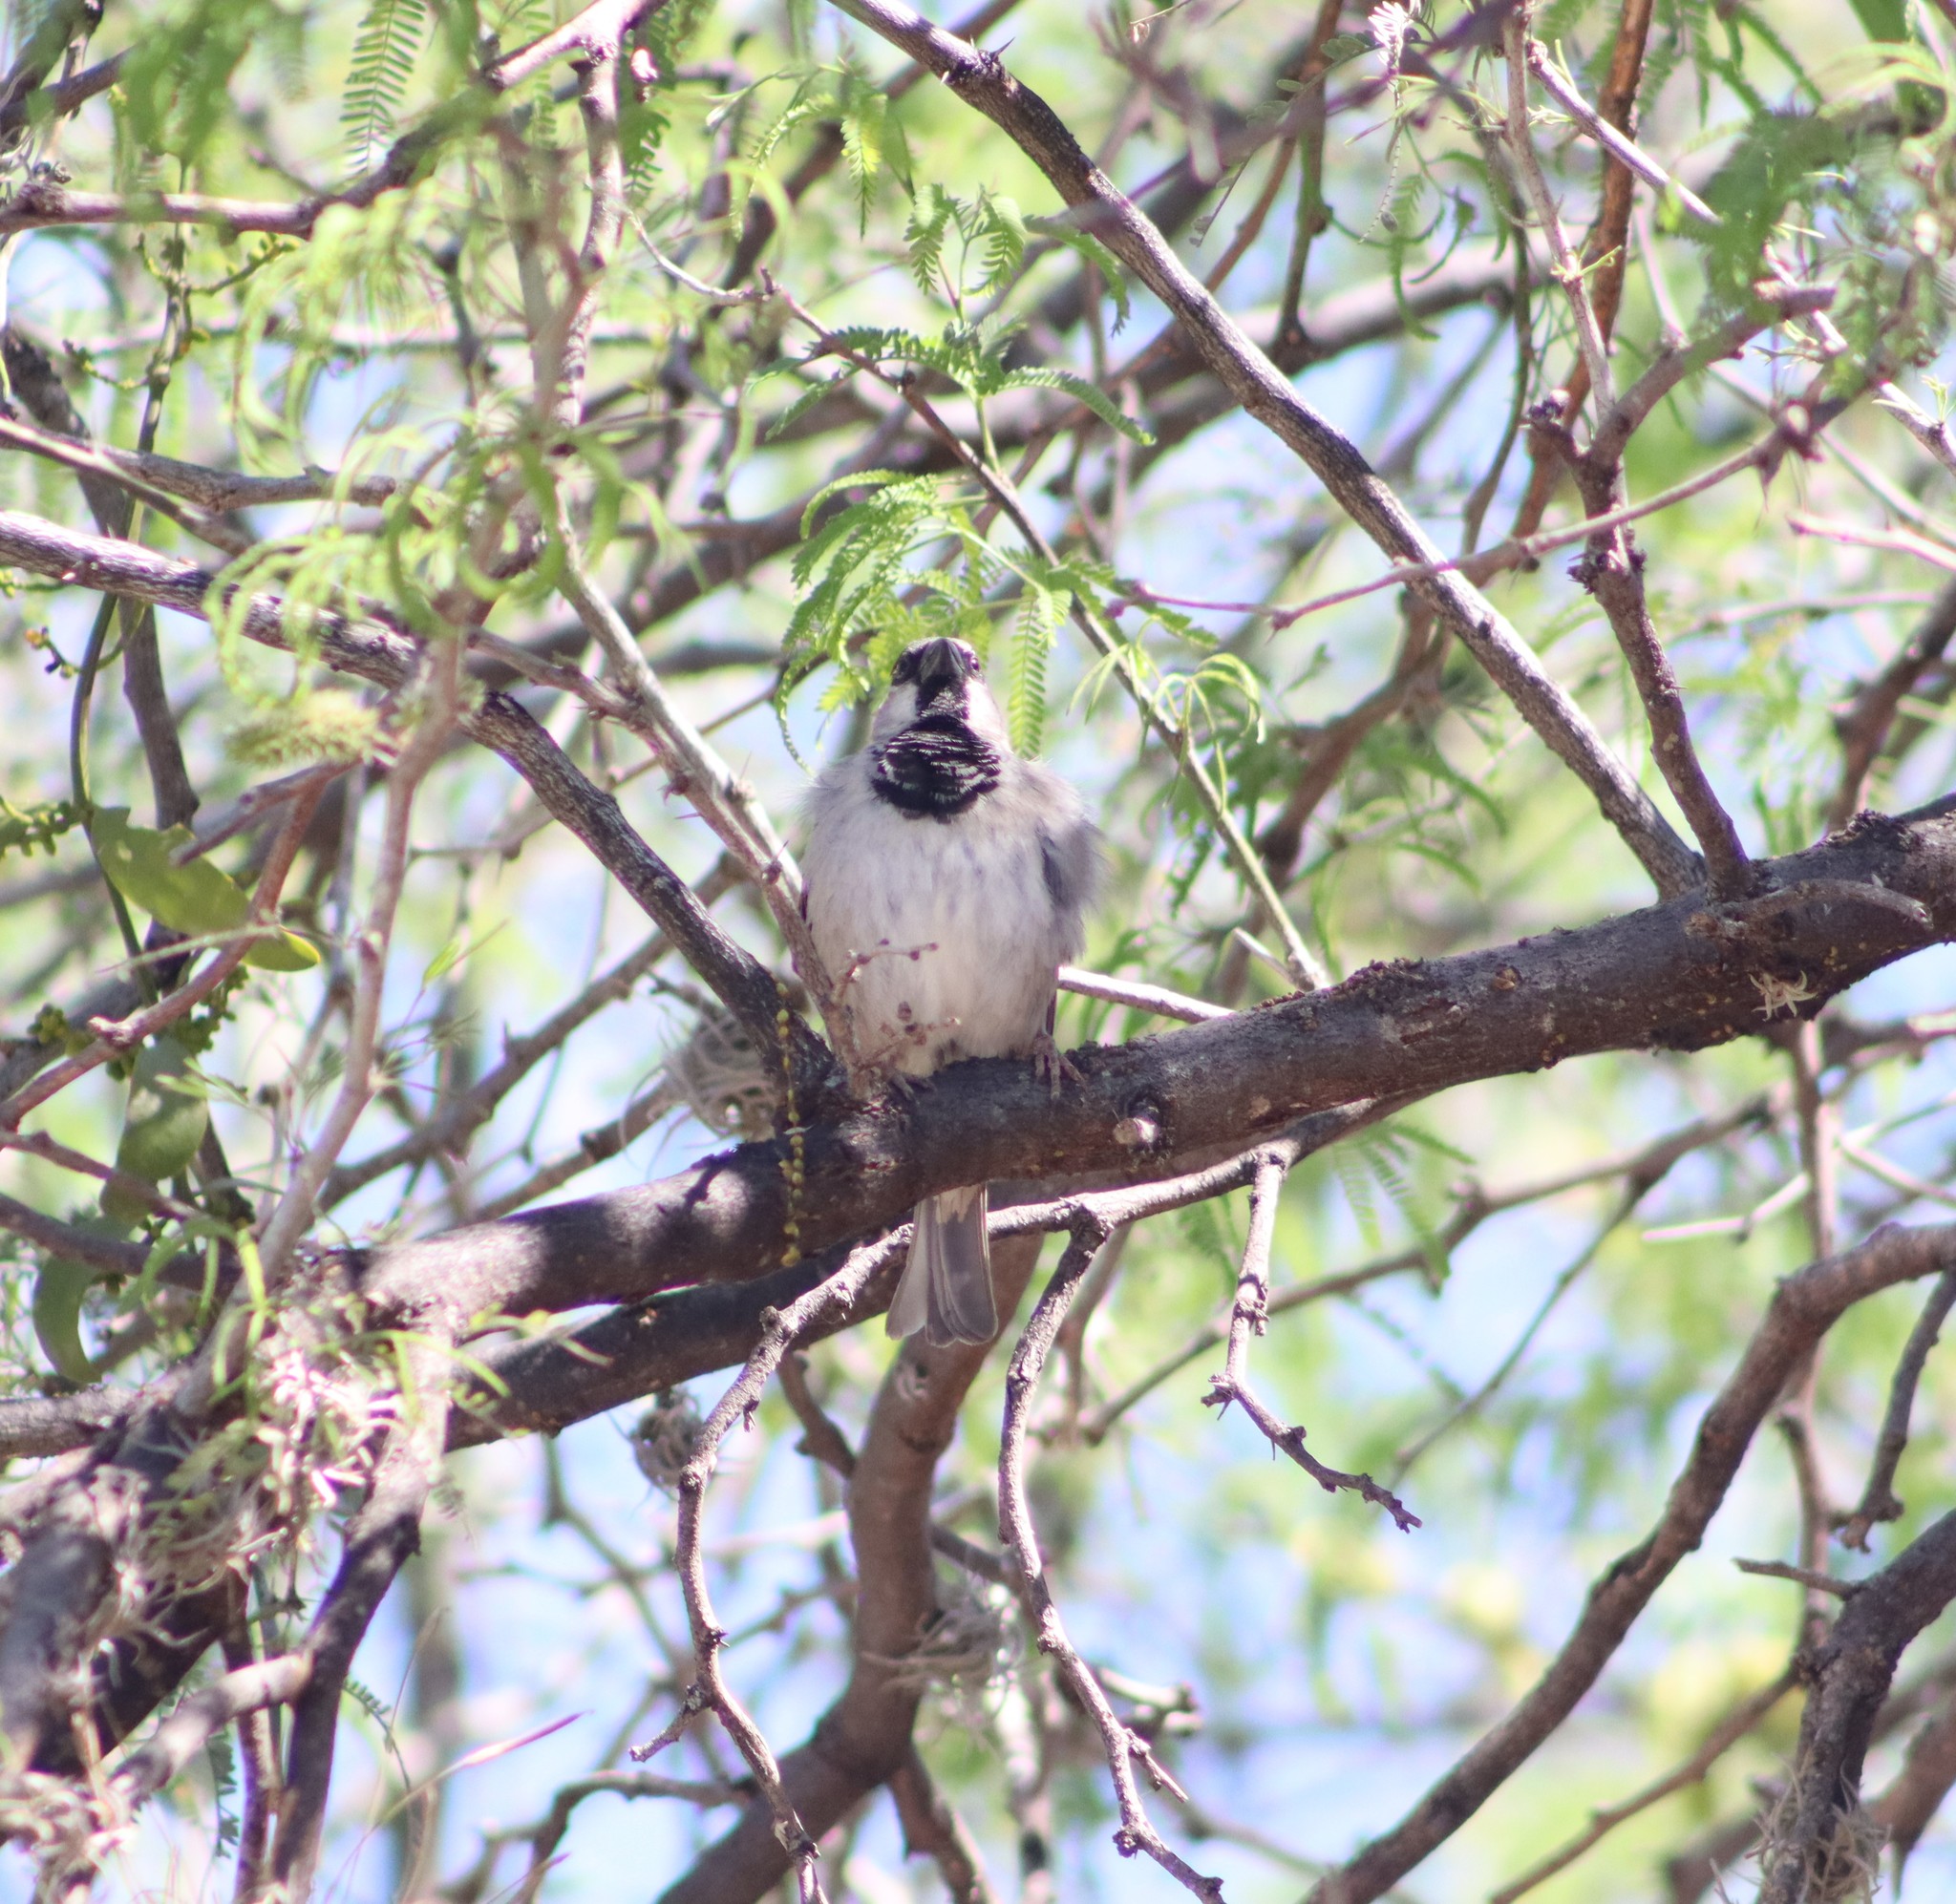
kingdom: Animalia
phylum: Chordata
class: Aves
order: Passeriformes
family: Passeridae
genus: Passer
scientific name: Passer domesticus
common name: House sparrow
